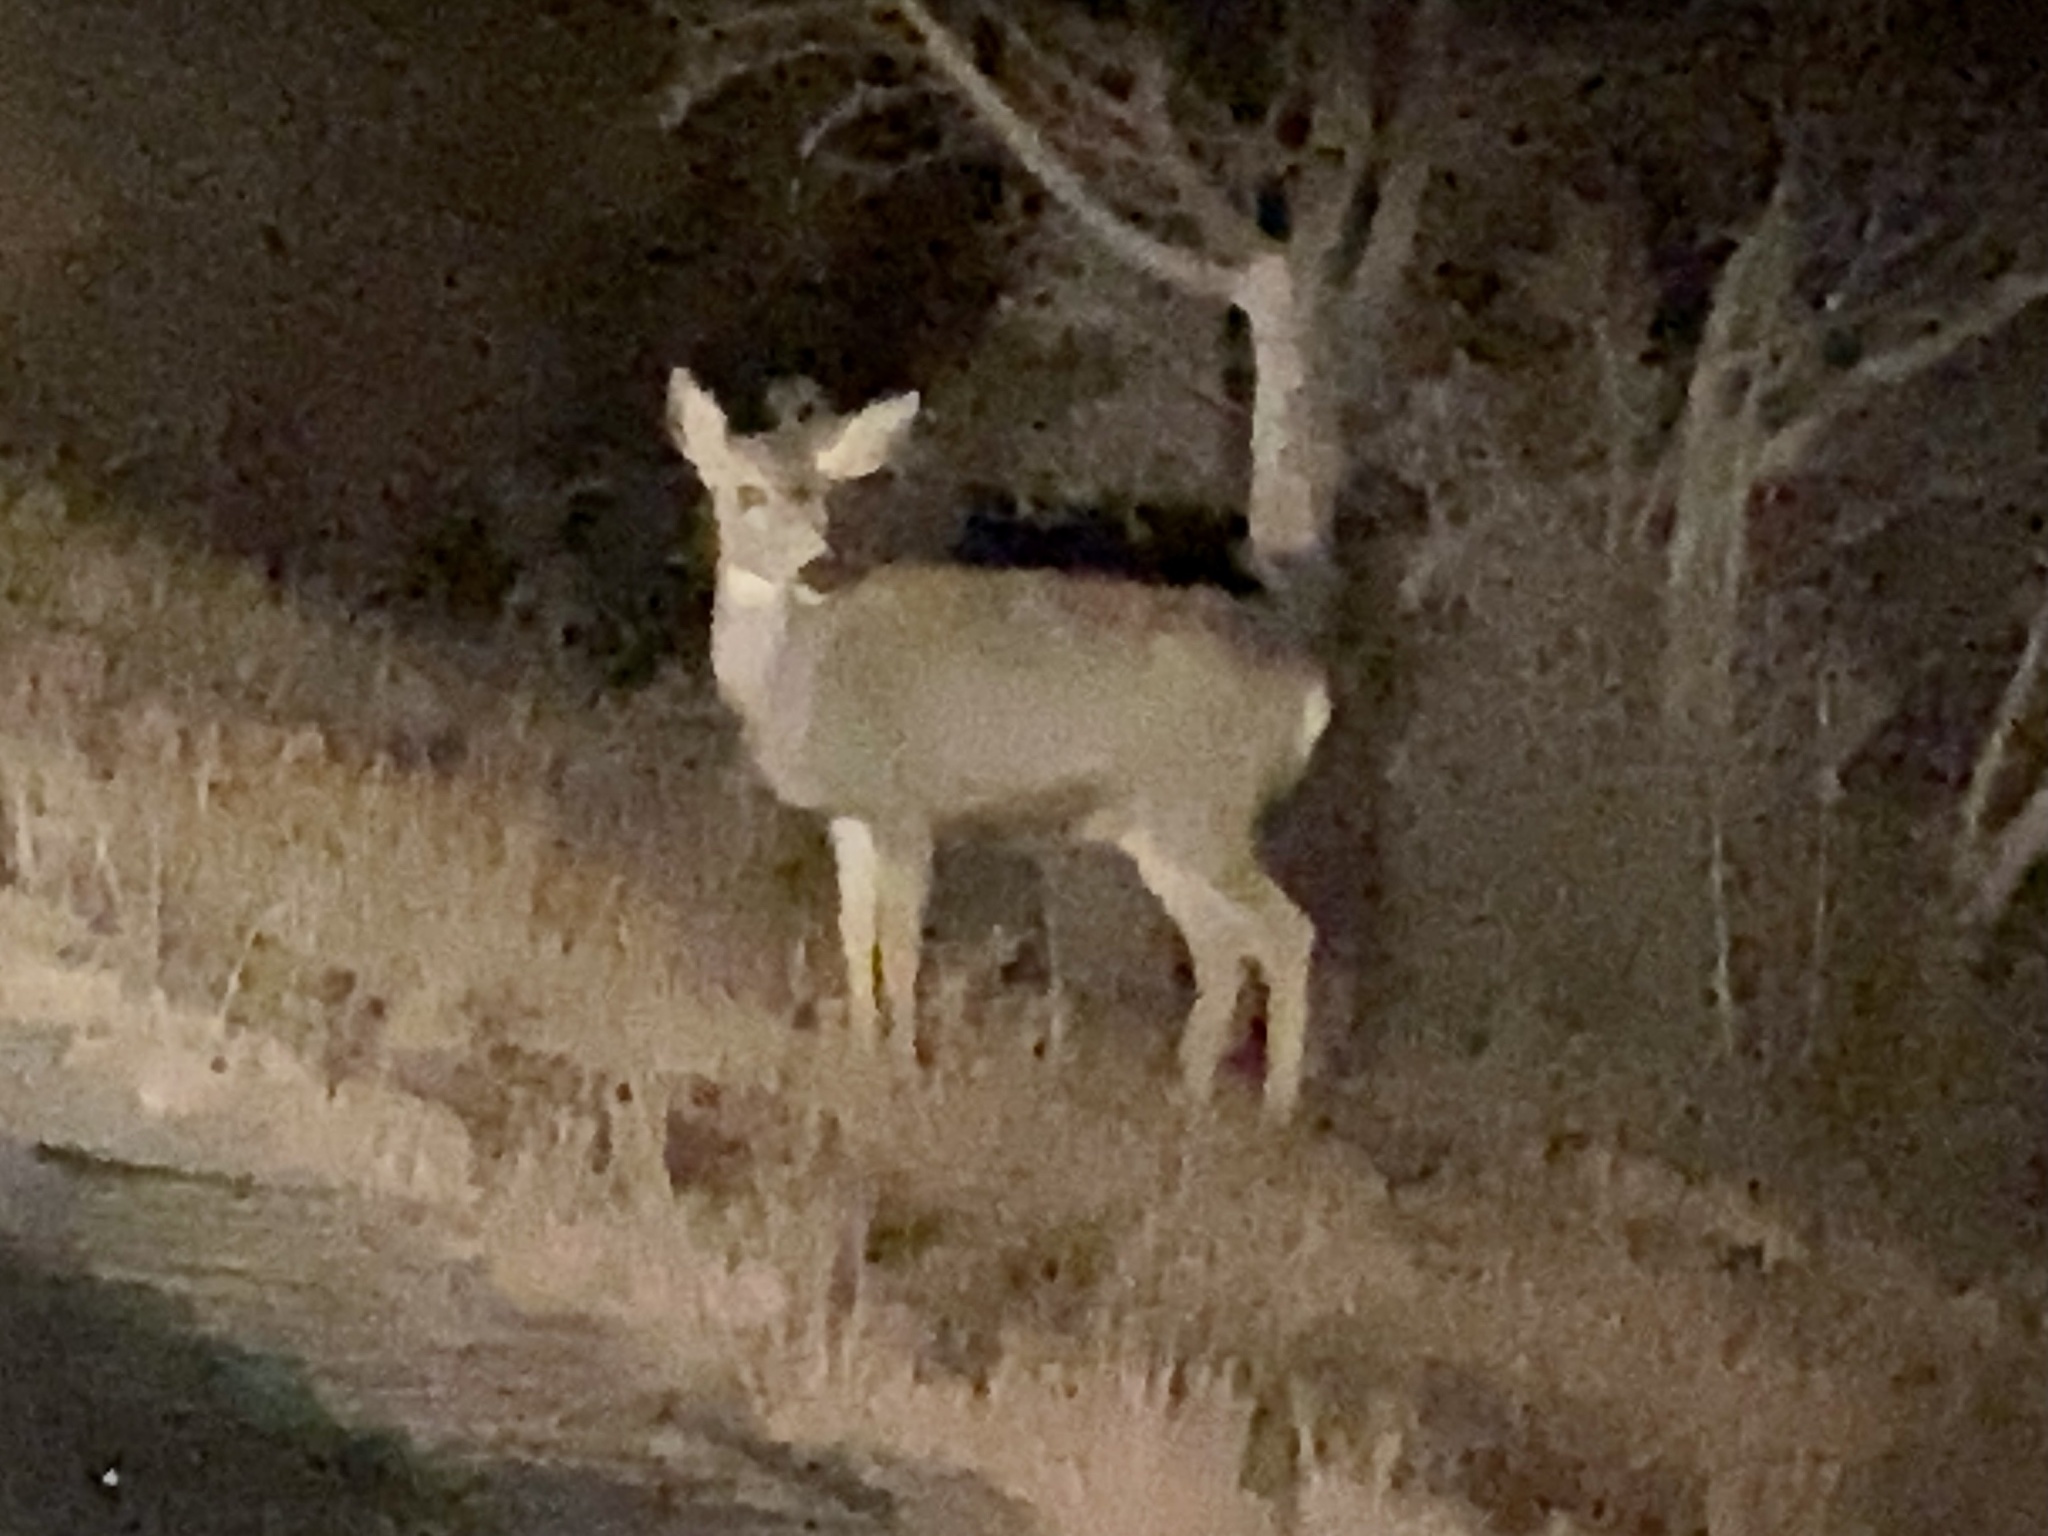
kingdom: Animalia
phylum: Chordata
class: Mammalia
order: Artiodactyla
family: Cervidae
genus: Odocoileus
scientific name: Odocoileus hemionus
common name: Mule deer
